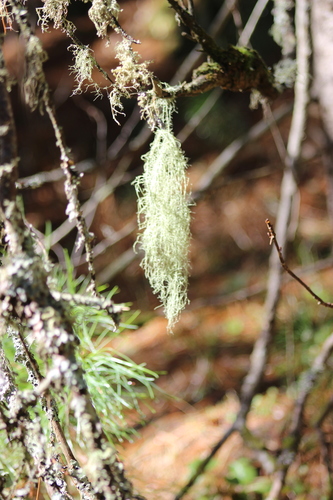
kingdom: Fungi
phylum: Ascomycota
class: Lecanoromycetes
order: Lecanorales
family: Parmeliaceae
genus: Usnea
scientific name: Usnea dasopoga
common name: Fishbone beard lichen
